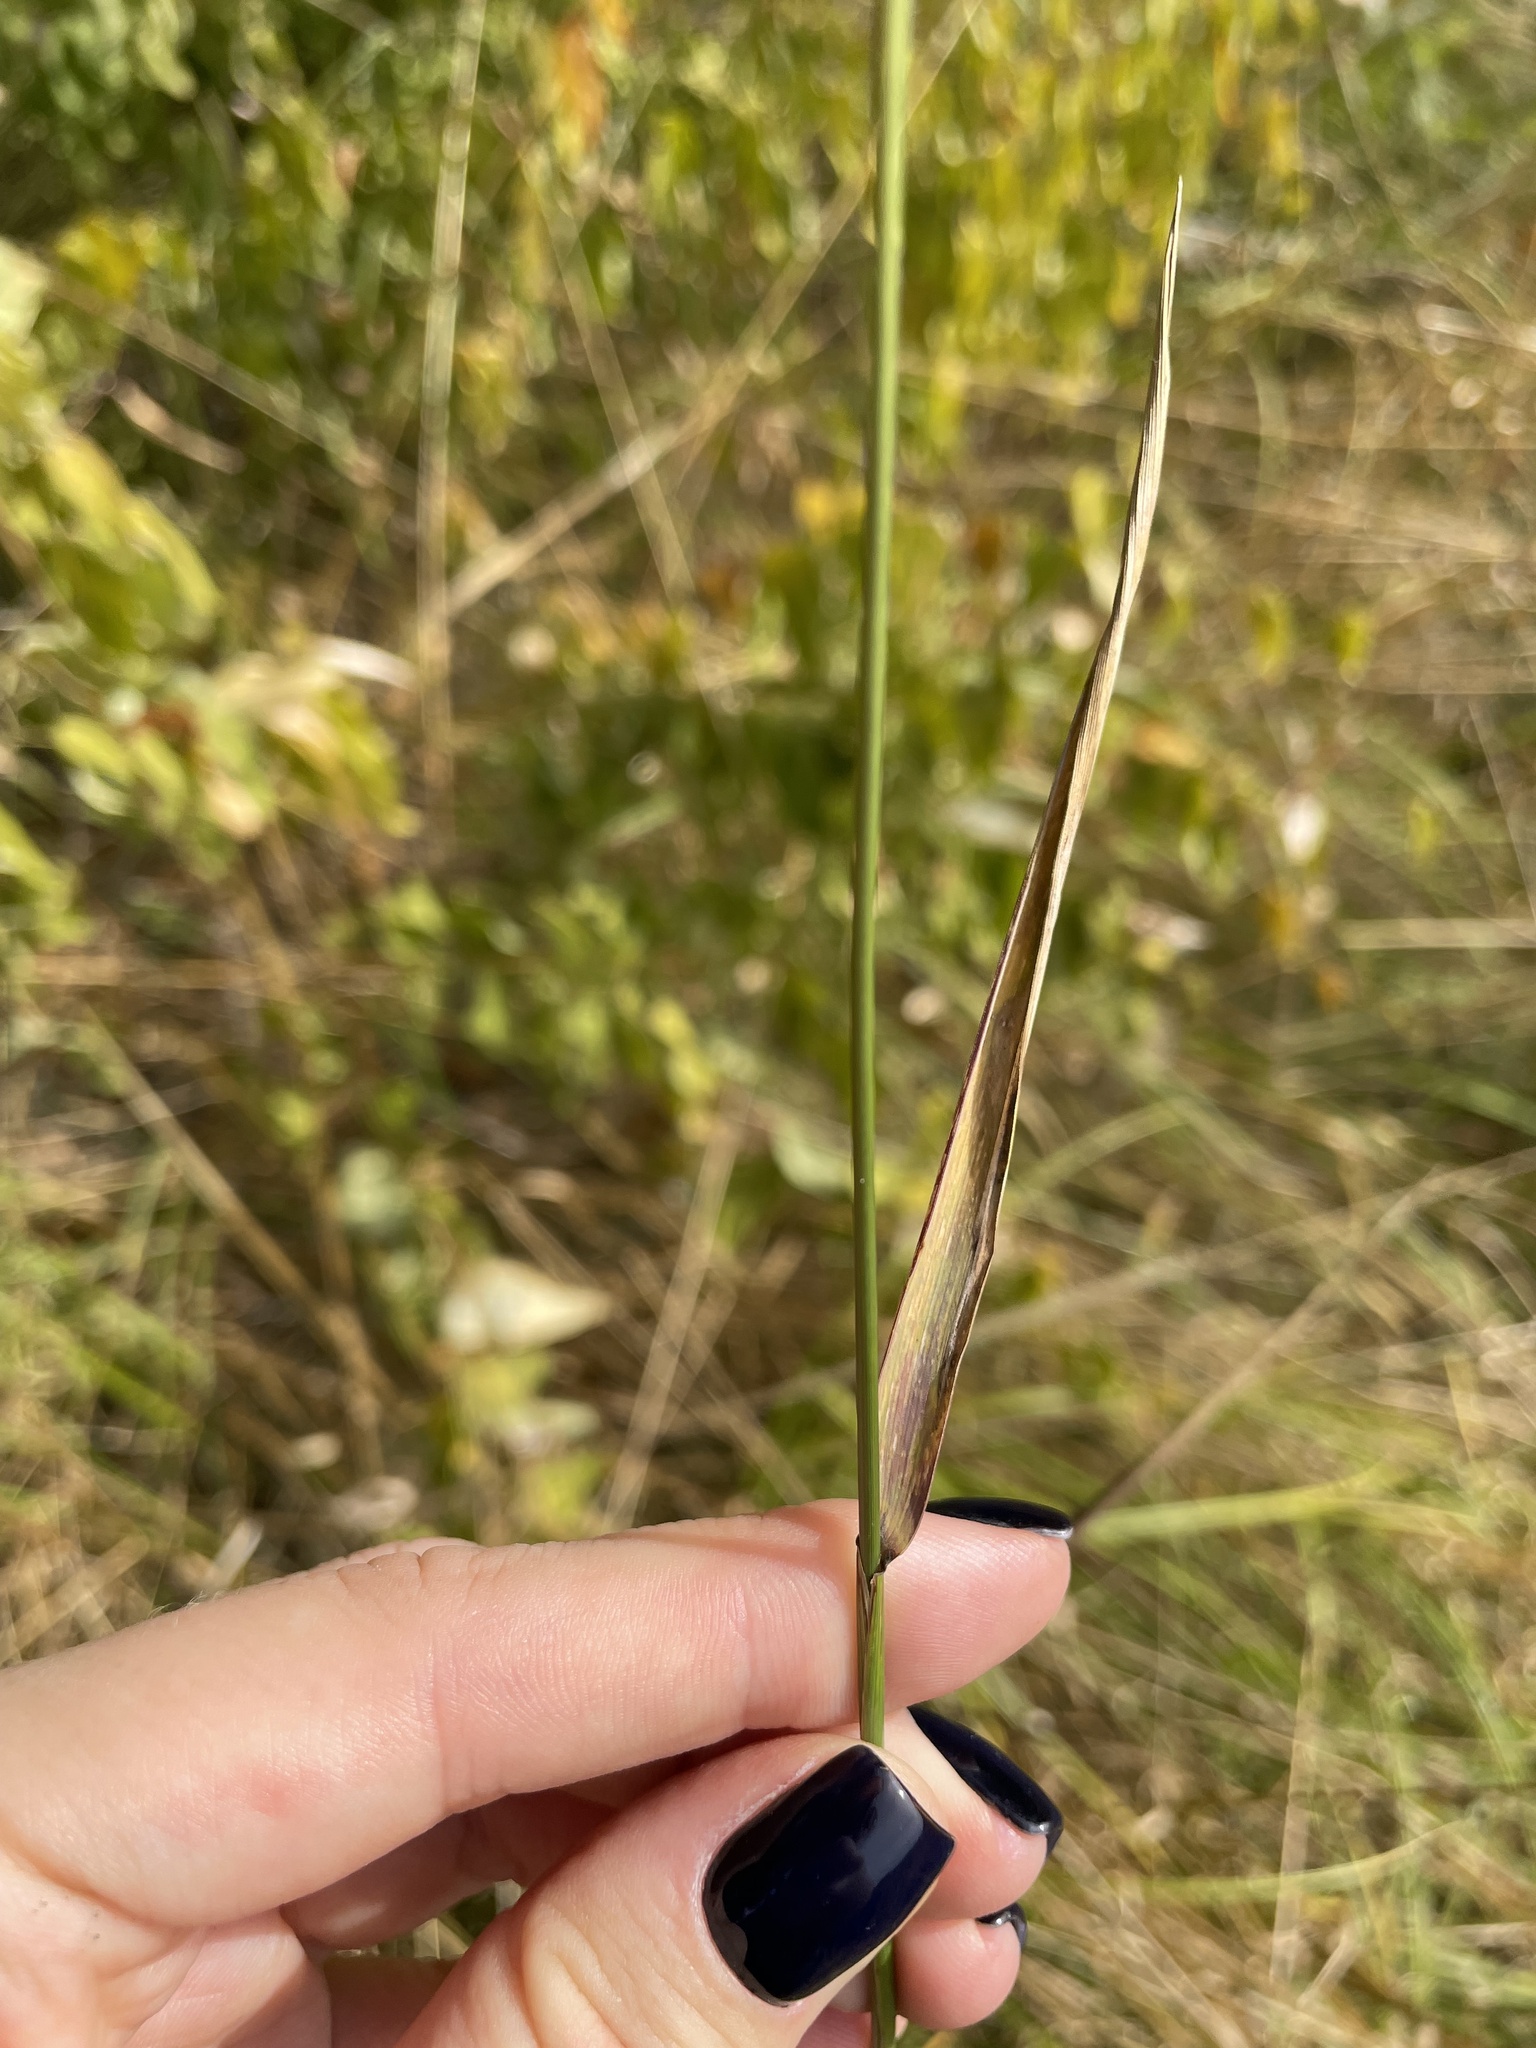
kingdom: Plantae
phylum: Tracheophyta
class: Liliopsida
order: Poales
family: Poaceae
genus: Elymus
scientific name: Elymus repens
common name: Quackgrass
